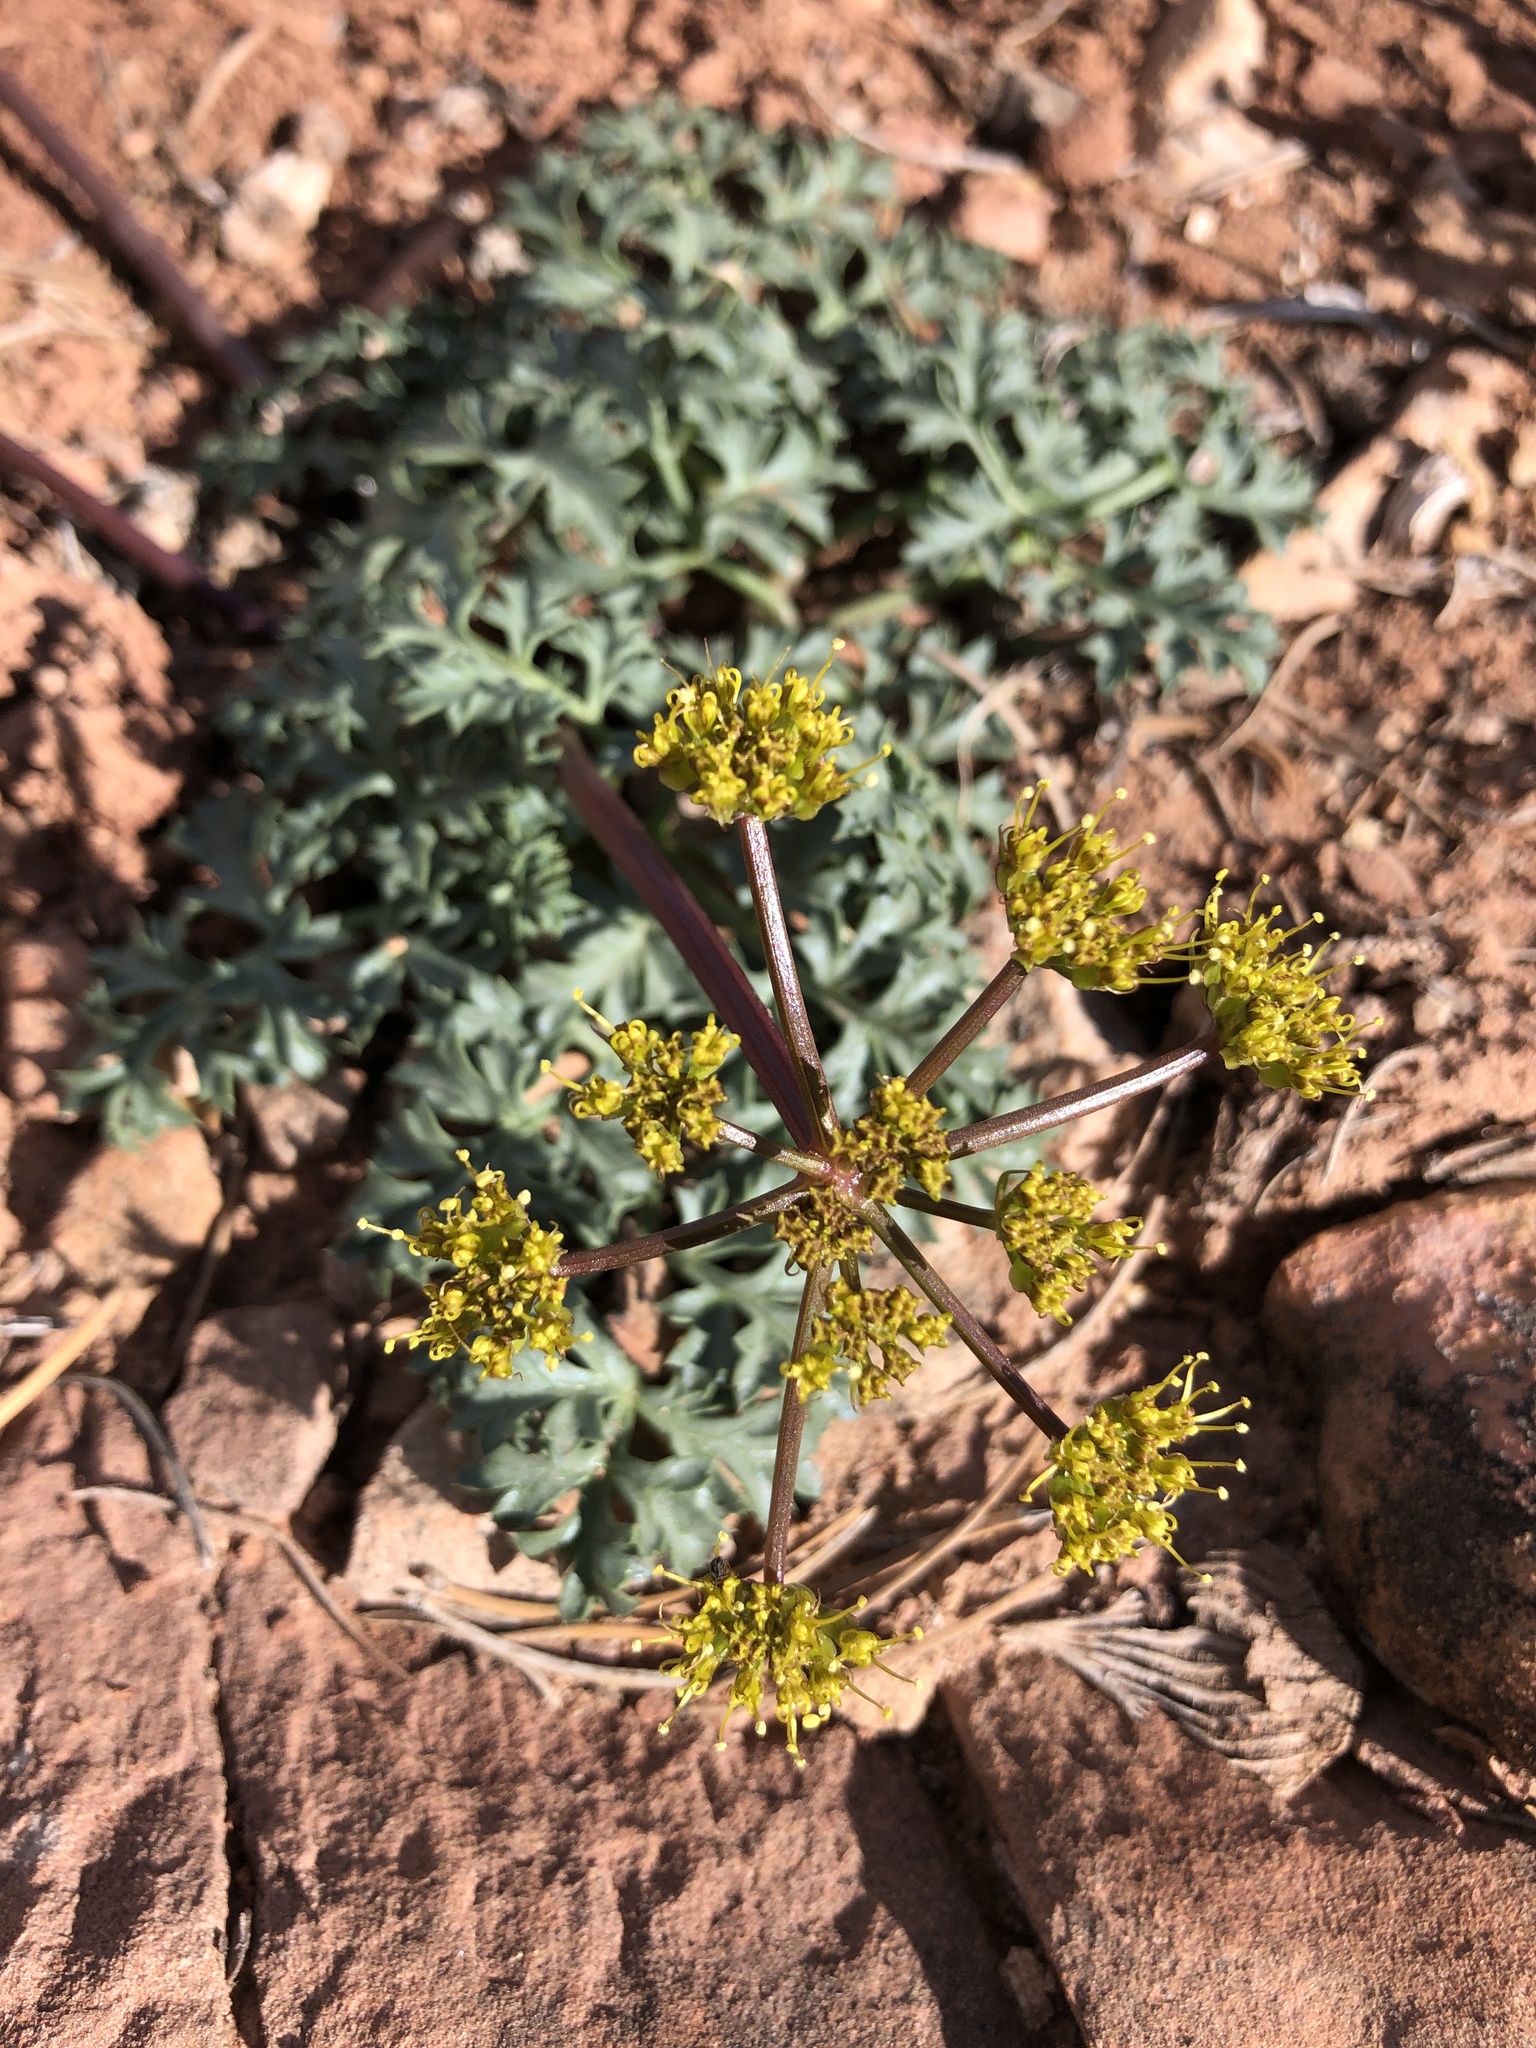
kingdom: Plantae
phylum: Tracheophyta
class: Magnoliopsida
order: Apiales
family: Apiaceae
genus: Aulospermum
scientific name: Aulospermum purpureum
